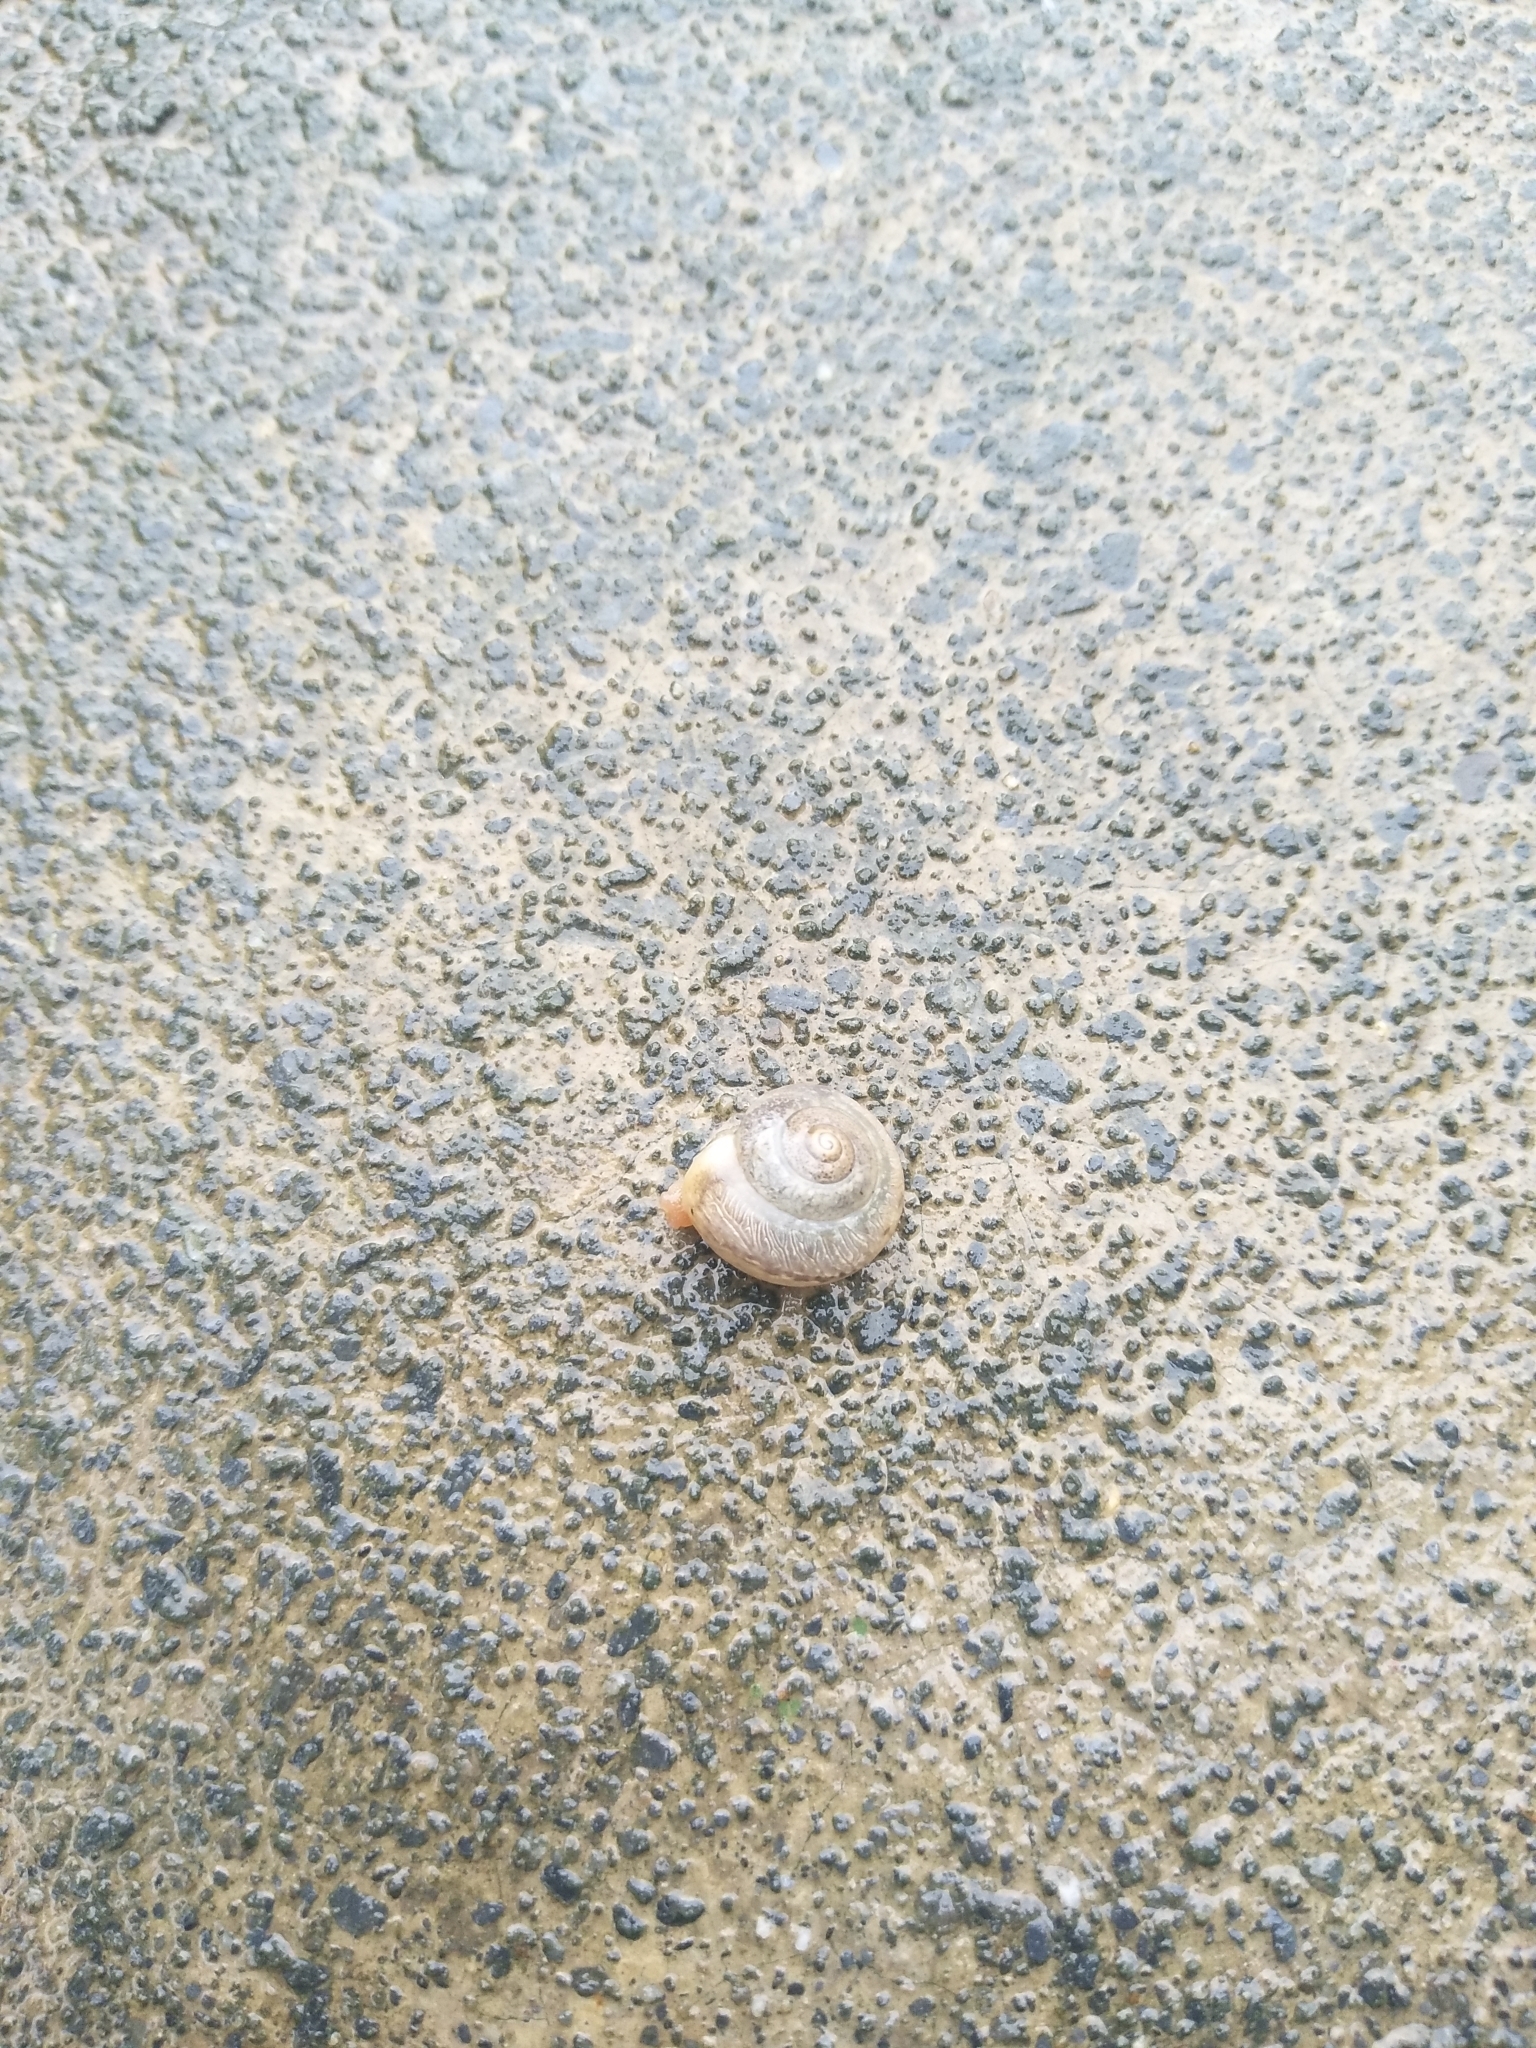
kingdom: Animalia
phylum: Mollusca
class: Gastropoda
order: Stylommatophora
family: Camaenidae
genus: Bradybaena
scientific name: Bradybaena similaris
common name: Asian trampsnail
